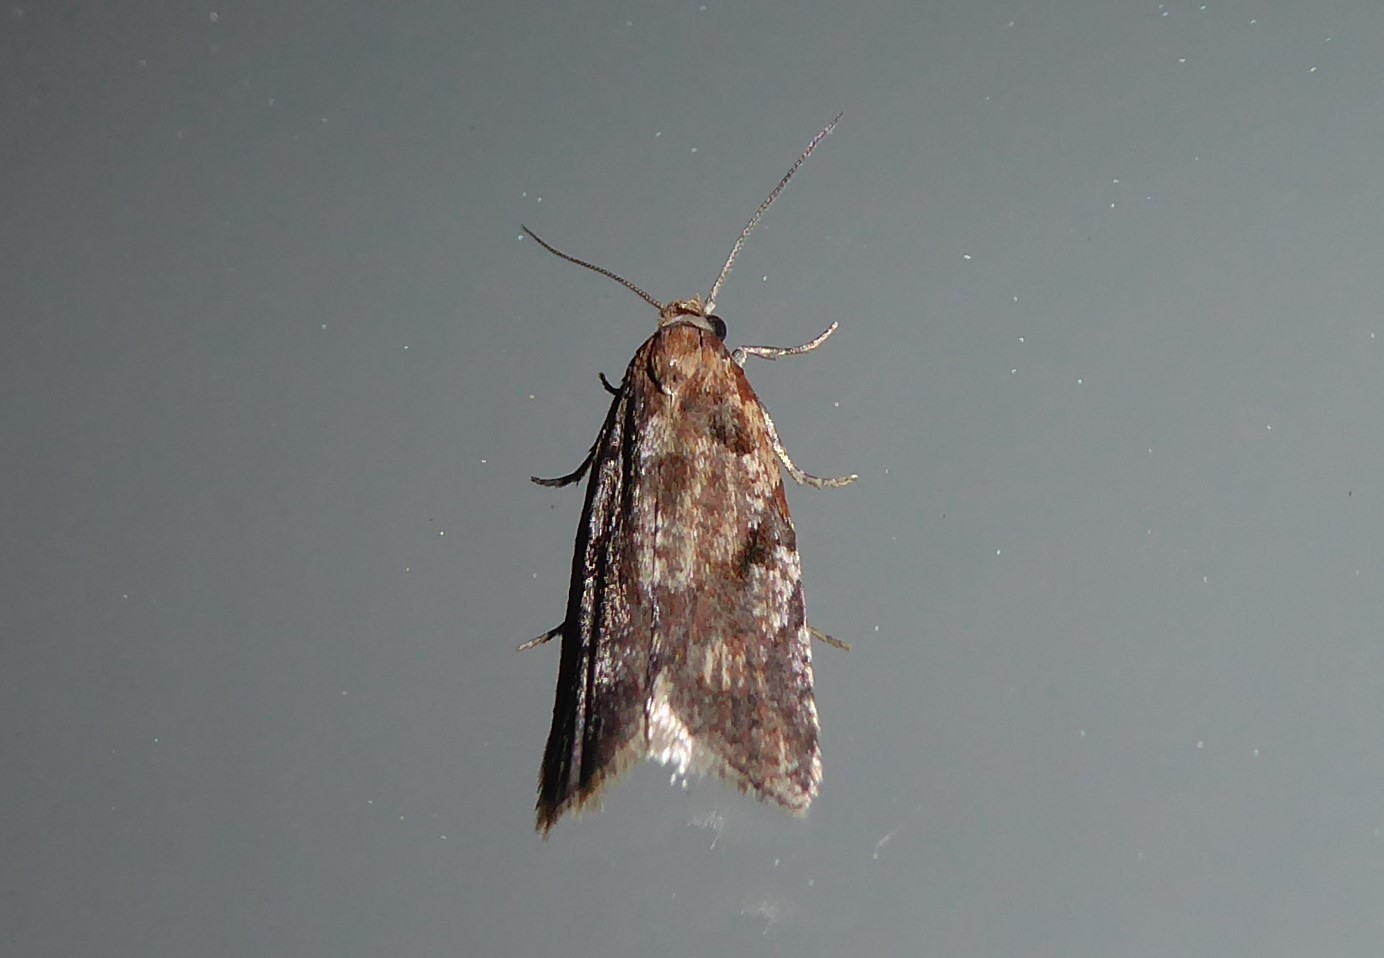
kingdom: Animalia
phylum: Arthropoda
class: Insecta
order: Lepidoptera
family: Tortricidae
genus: Capua
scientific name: Capua semiferana
